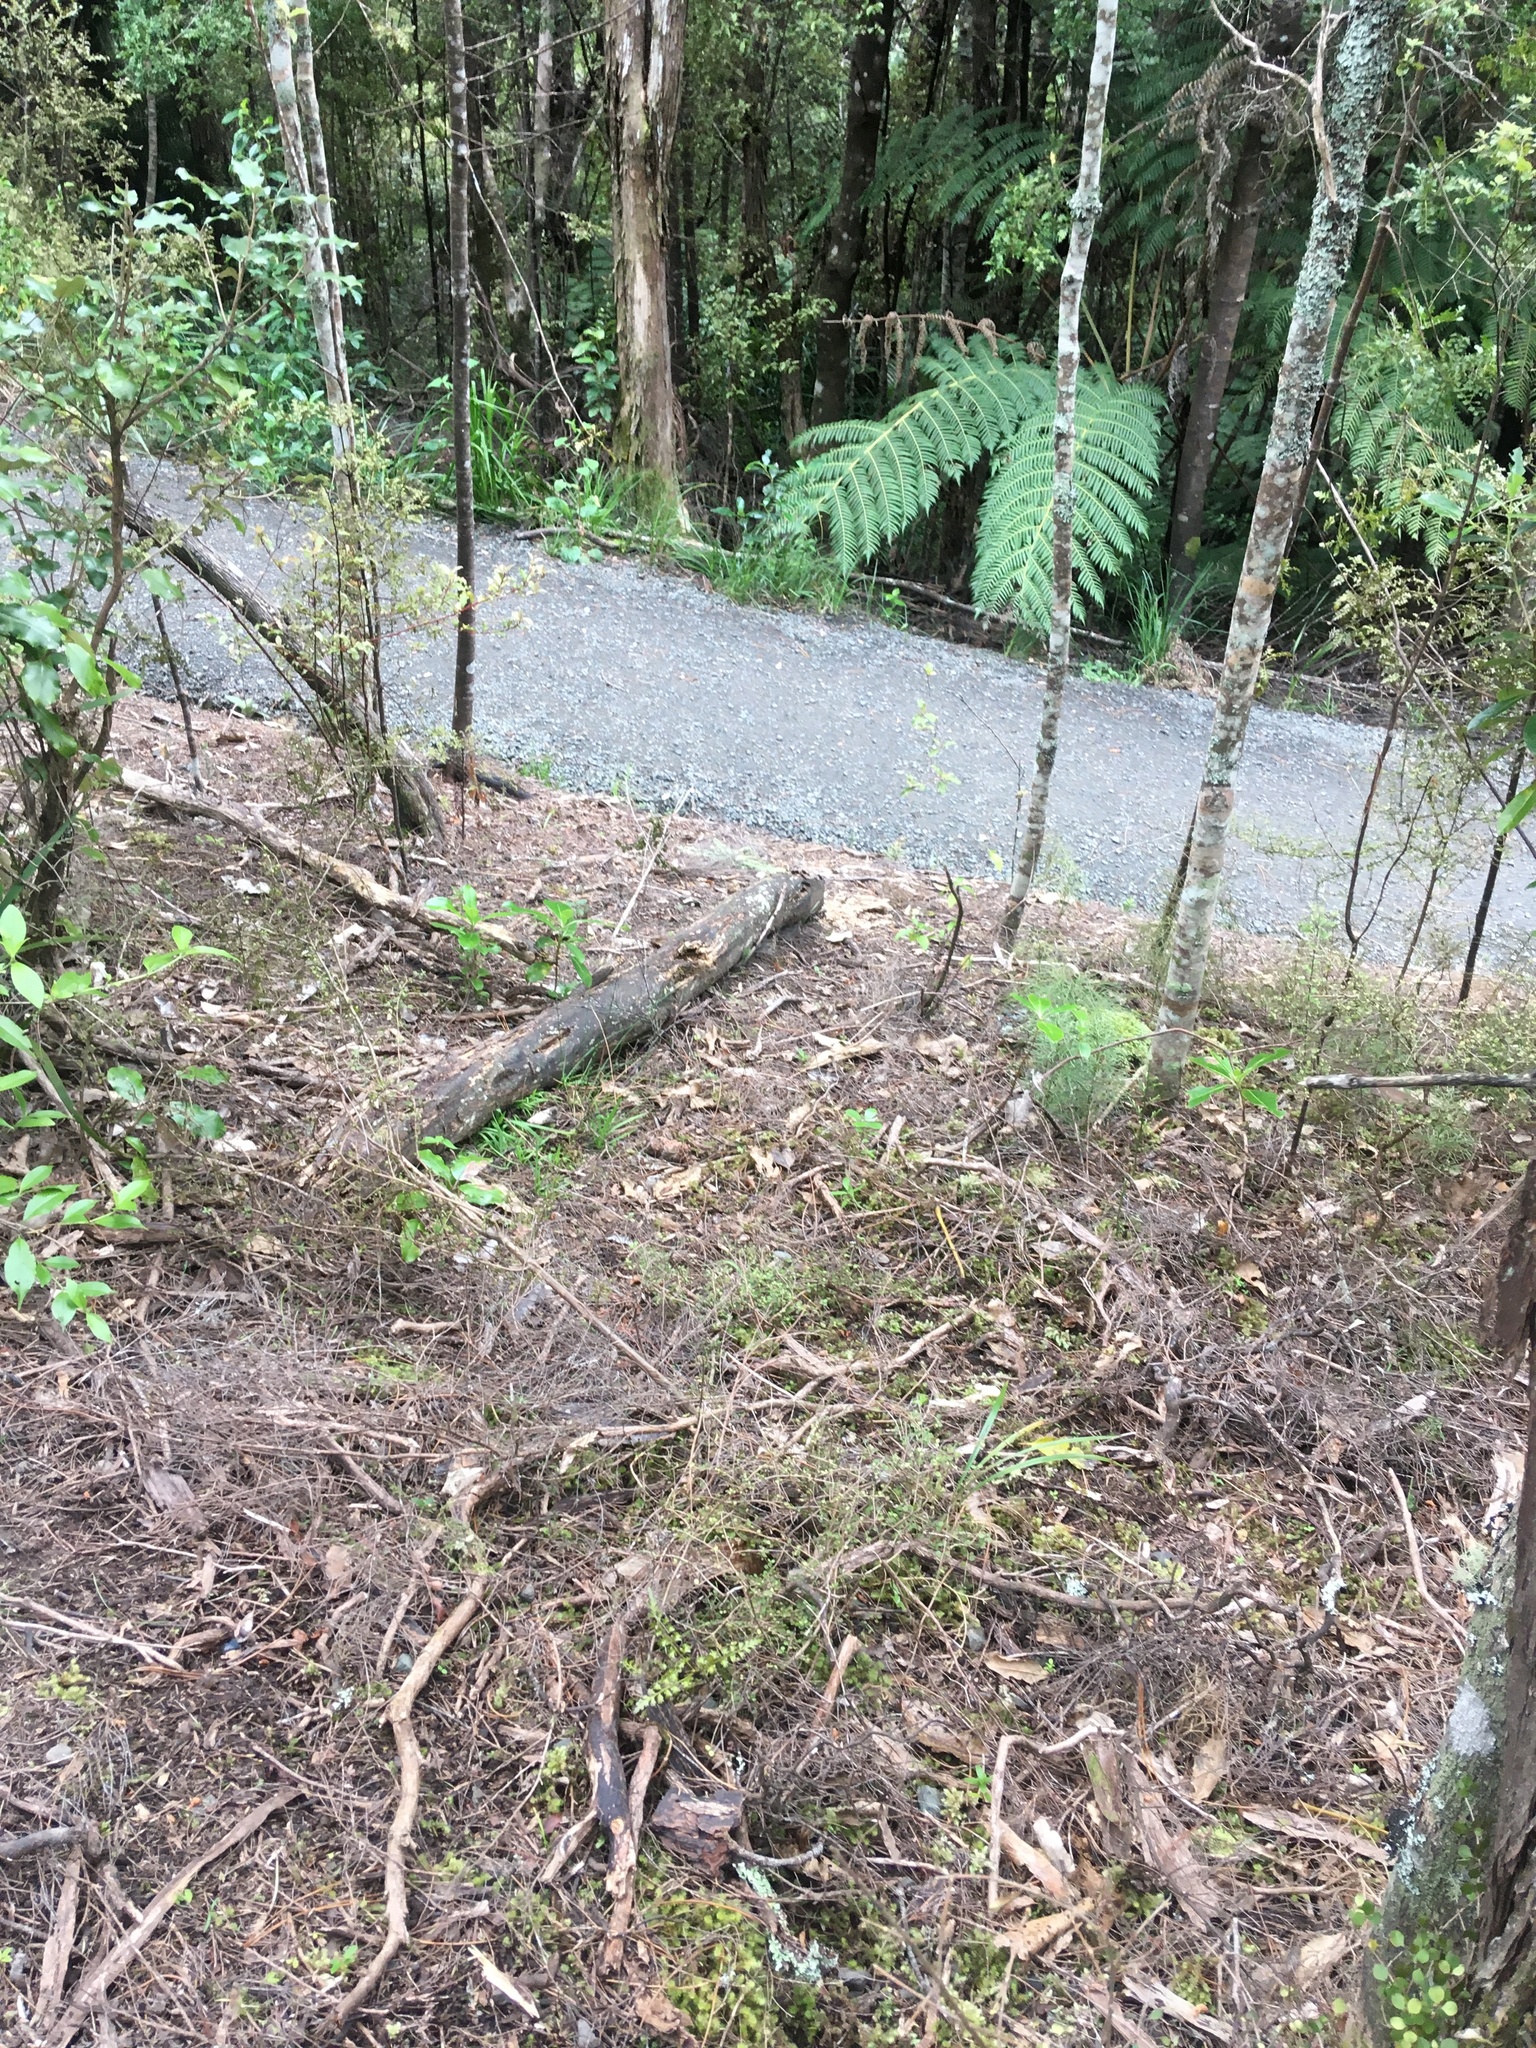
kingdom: Plantae
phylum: Tracheophyta
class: Pinopsida
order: Pinales
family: Phyllocladaceae
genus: Phyllocladus
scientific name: Phyllocladus trichomanoides
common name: Celery pine
